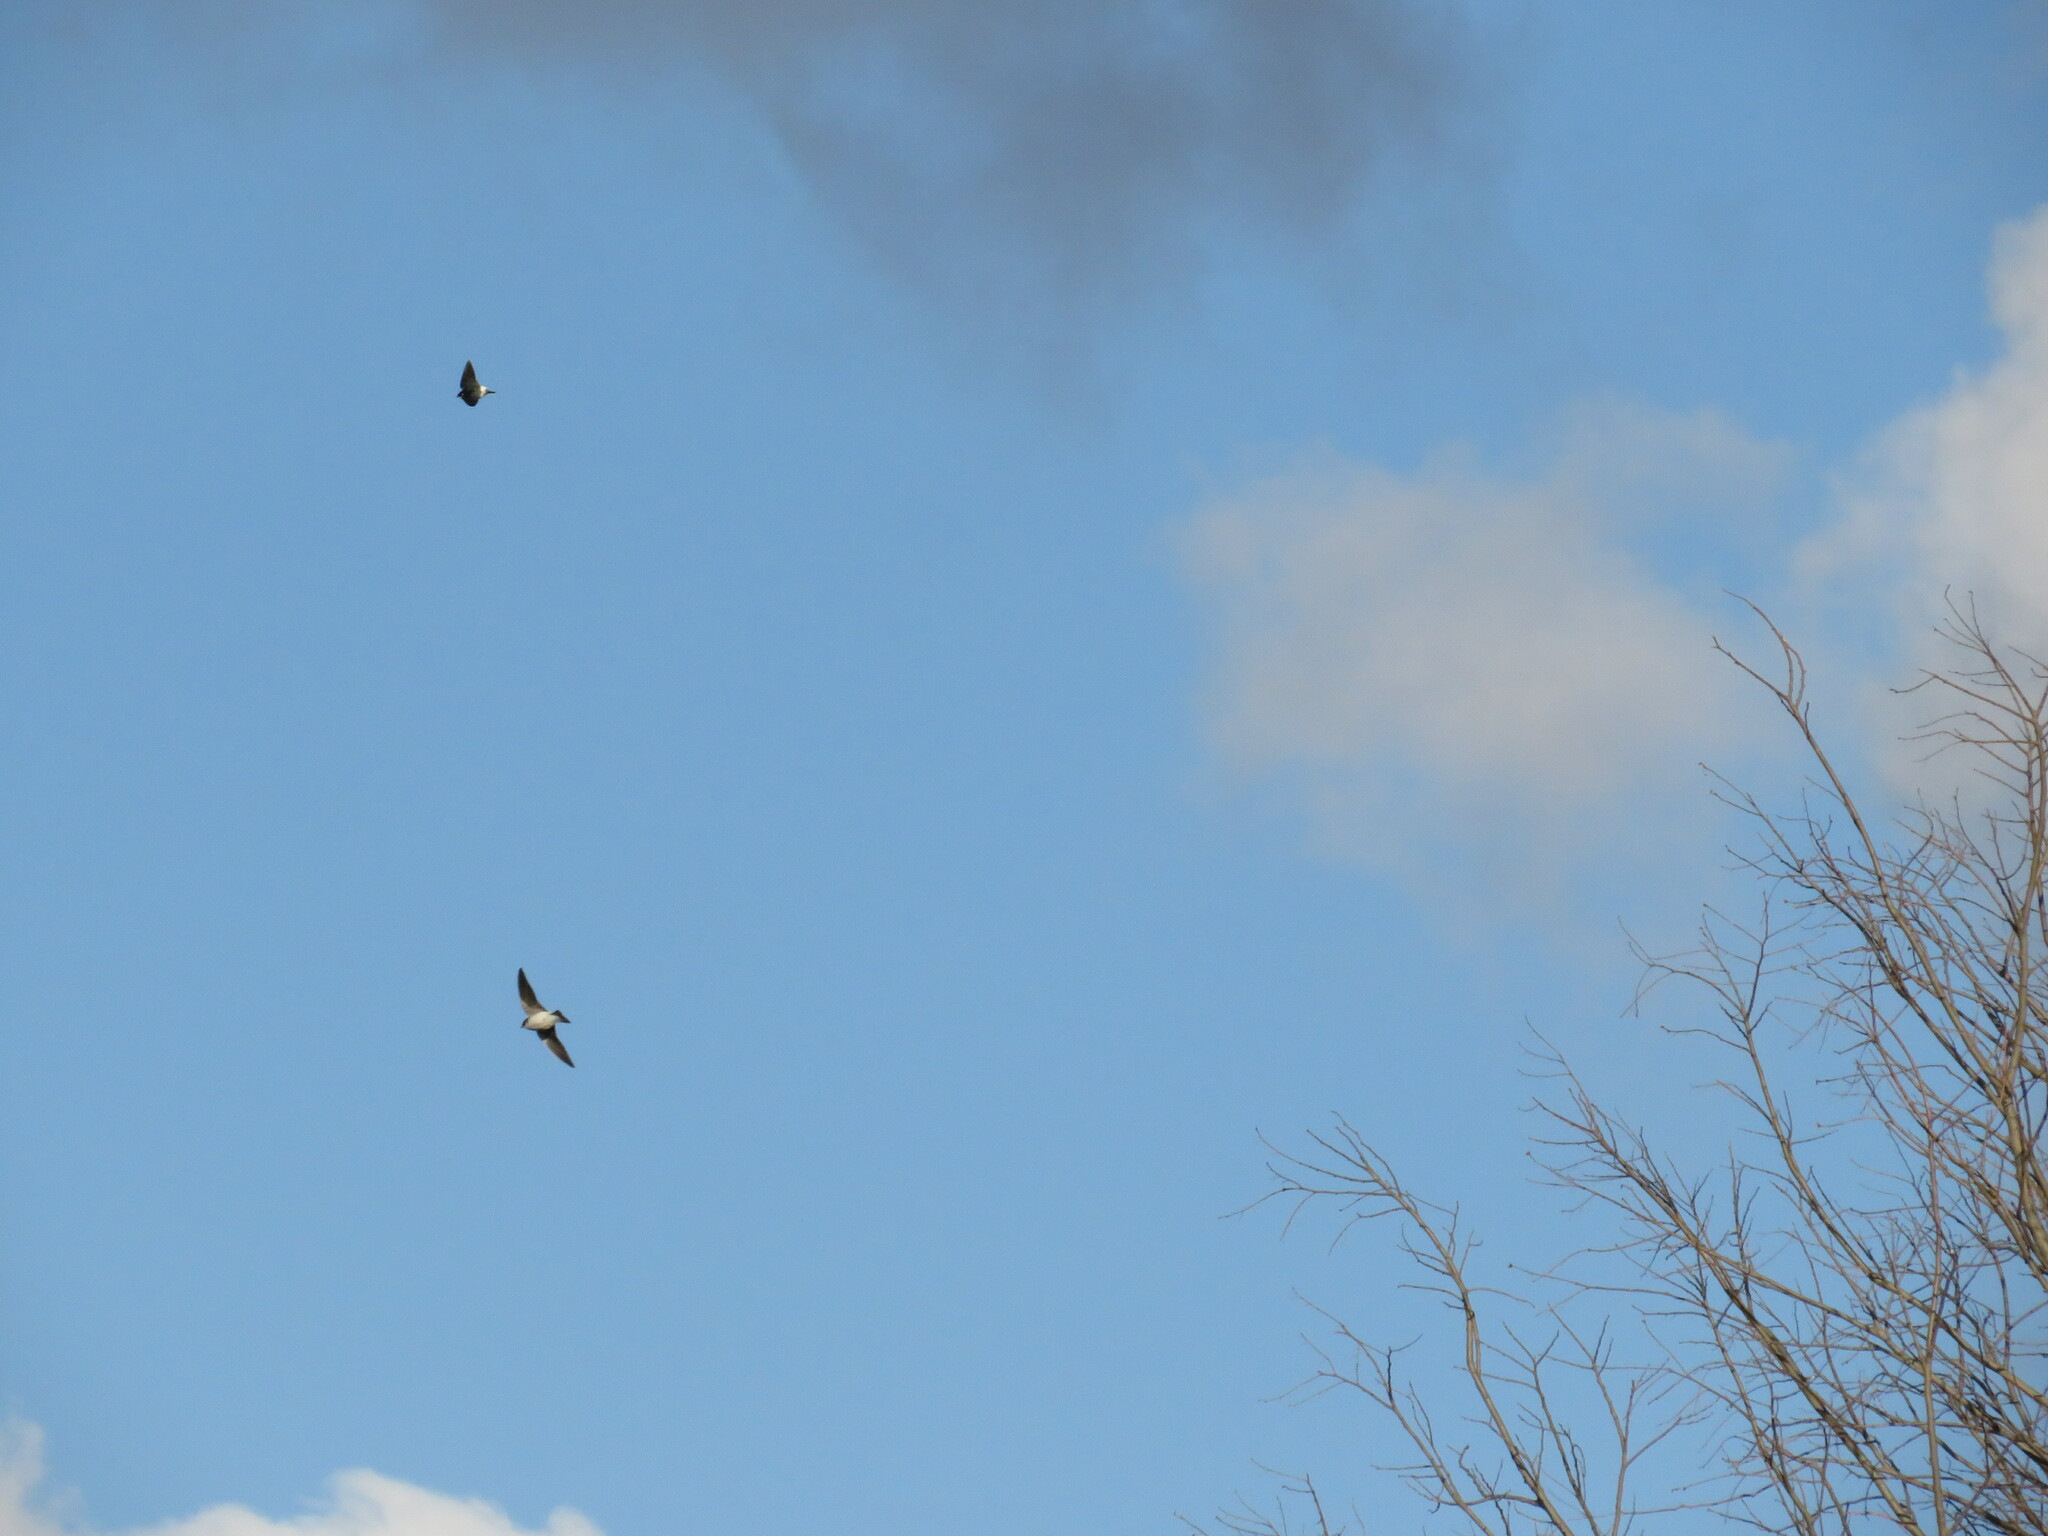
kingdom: Animalia
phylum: Chordata
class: Aves
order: Passeriformes
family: Hirundinidae
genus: Tachycineta
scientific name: Tachycineta leucorrhoa
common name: White-rumped swallow
